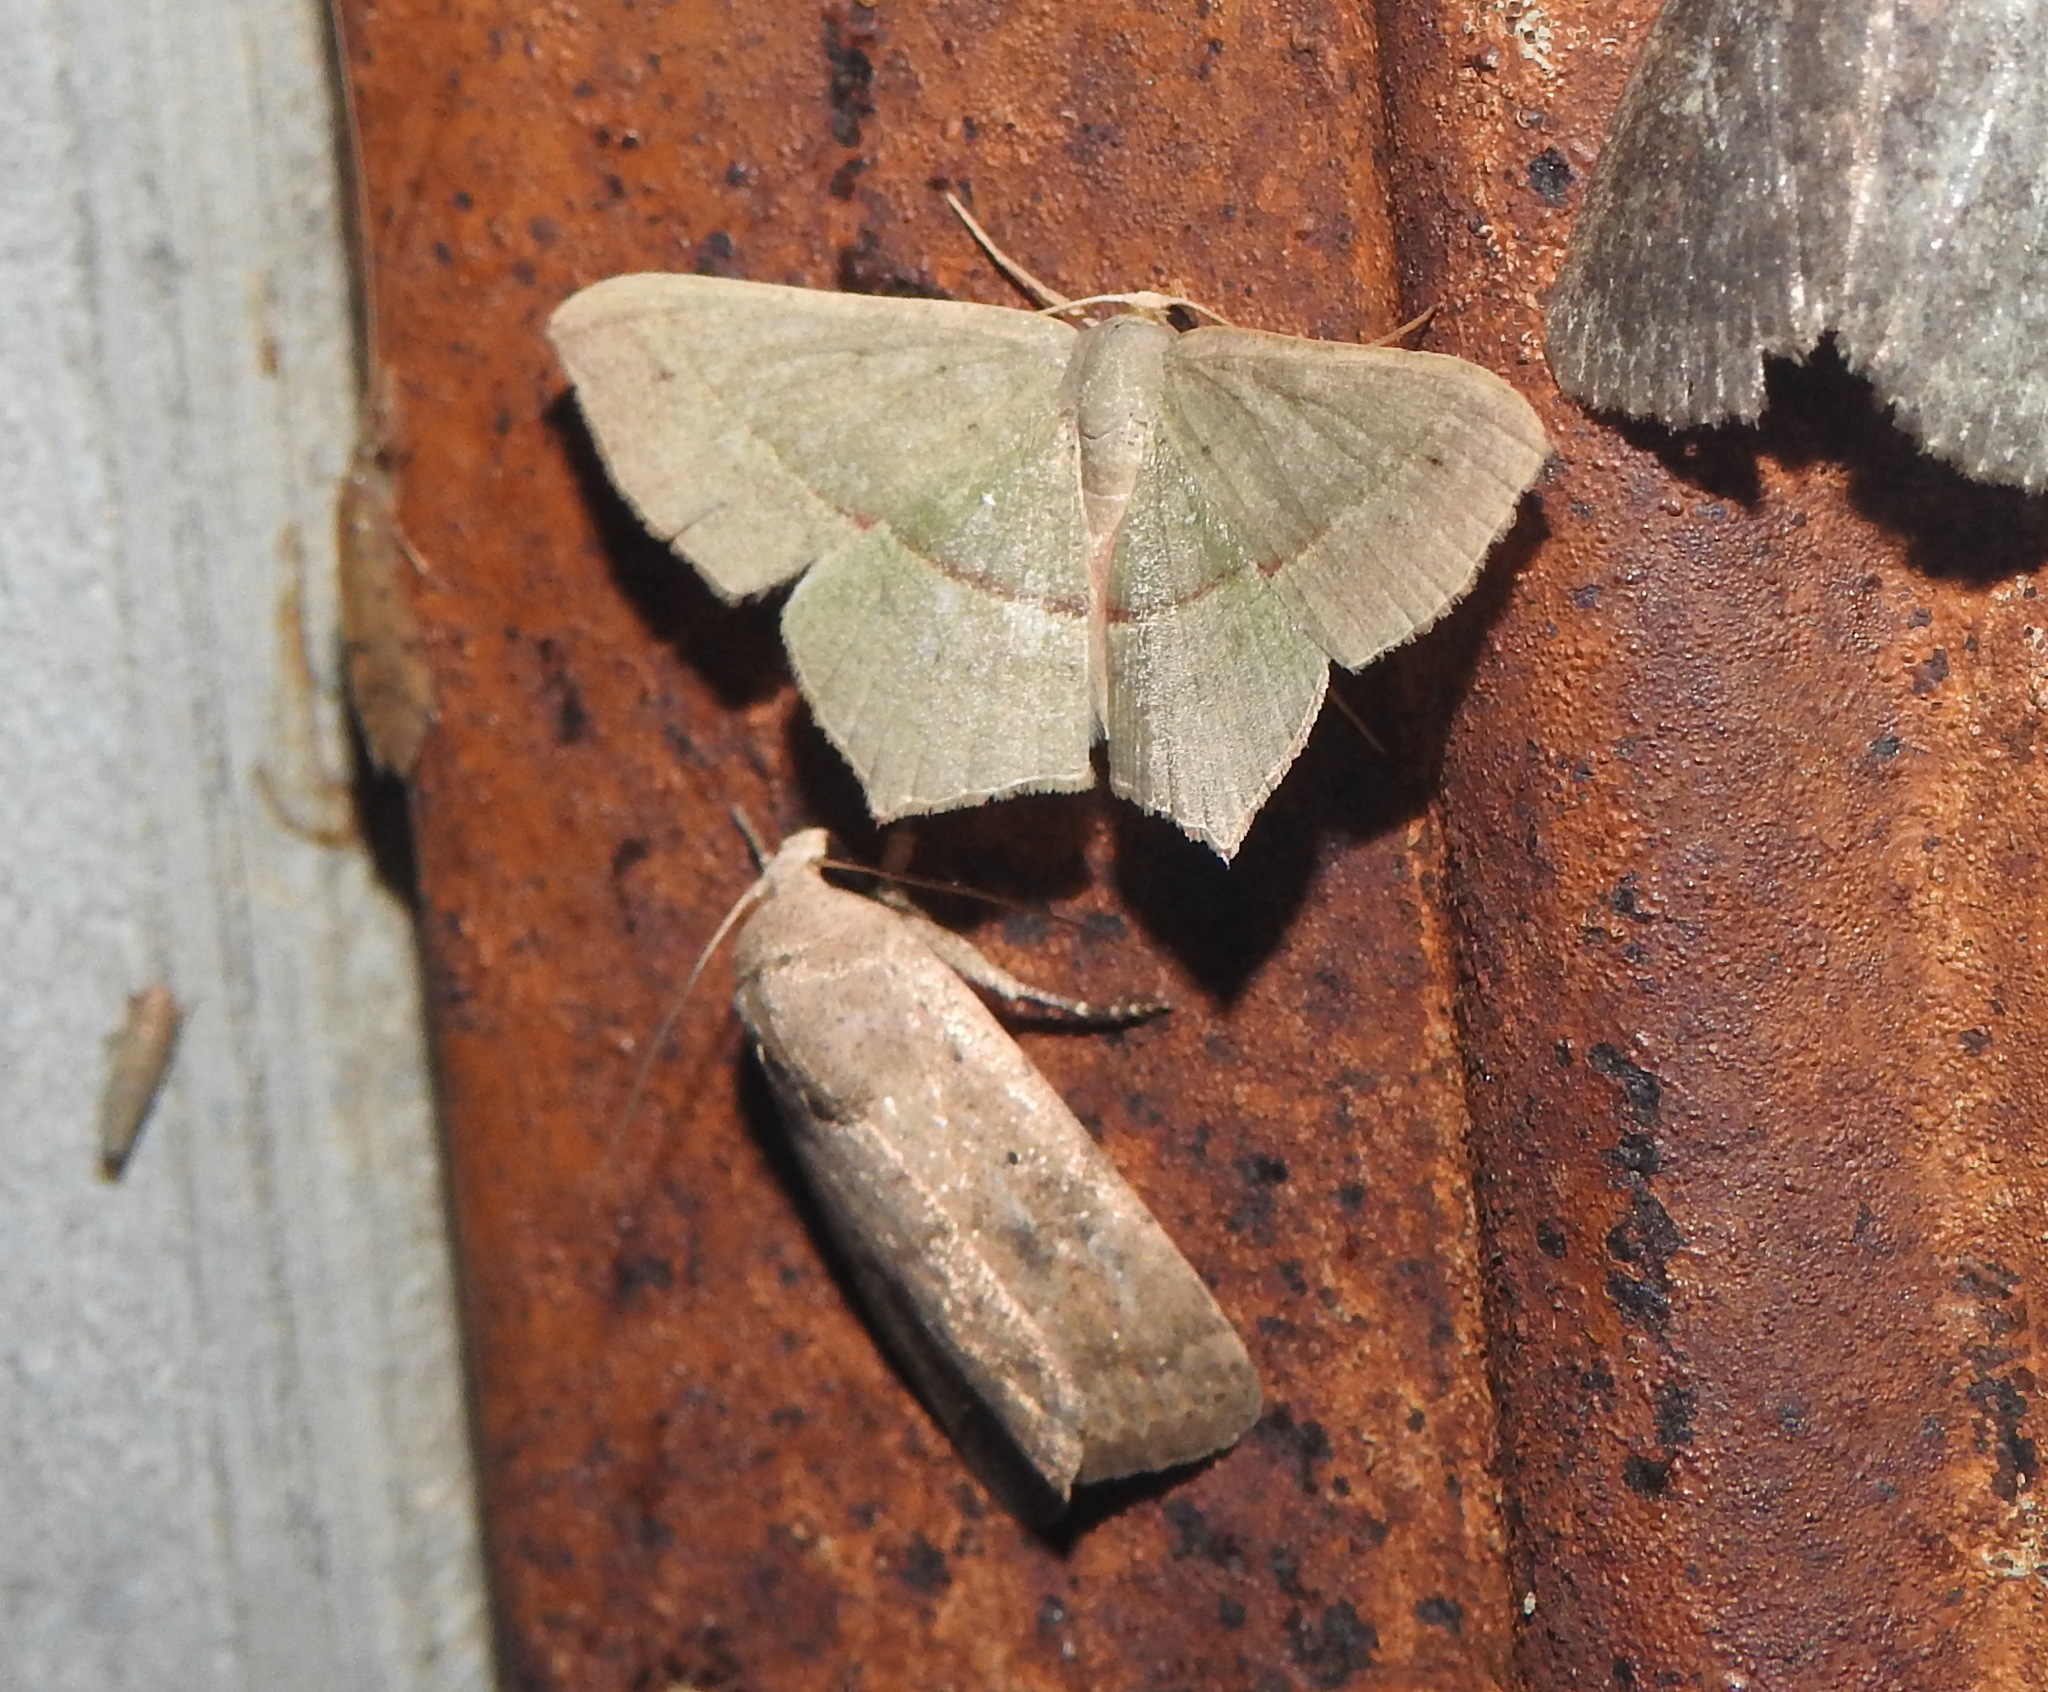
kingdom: Animalia
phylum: Arthropoda
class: Insecta
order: Lepidoptera
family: Geometridae
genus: Traminda
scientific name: Traminda mundissima
